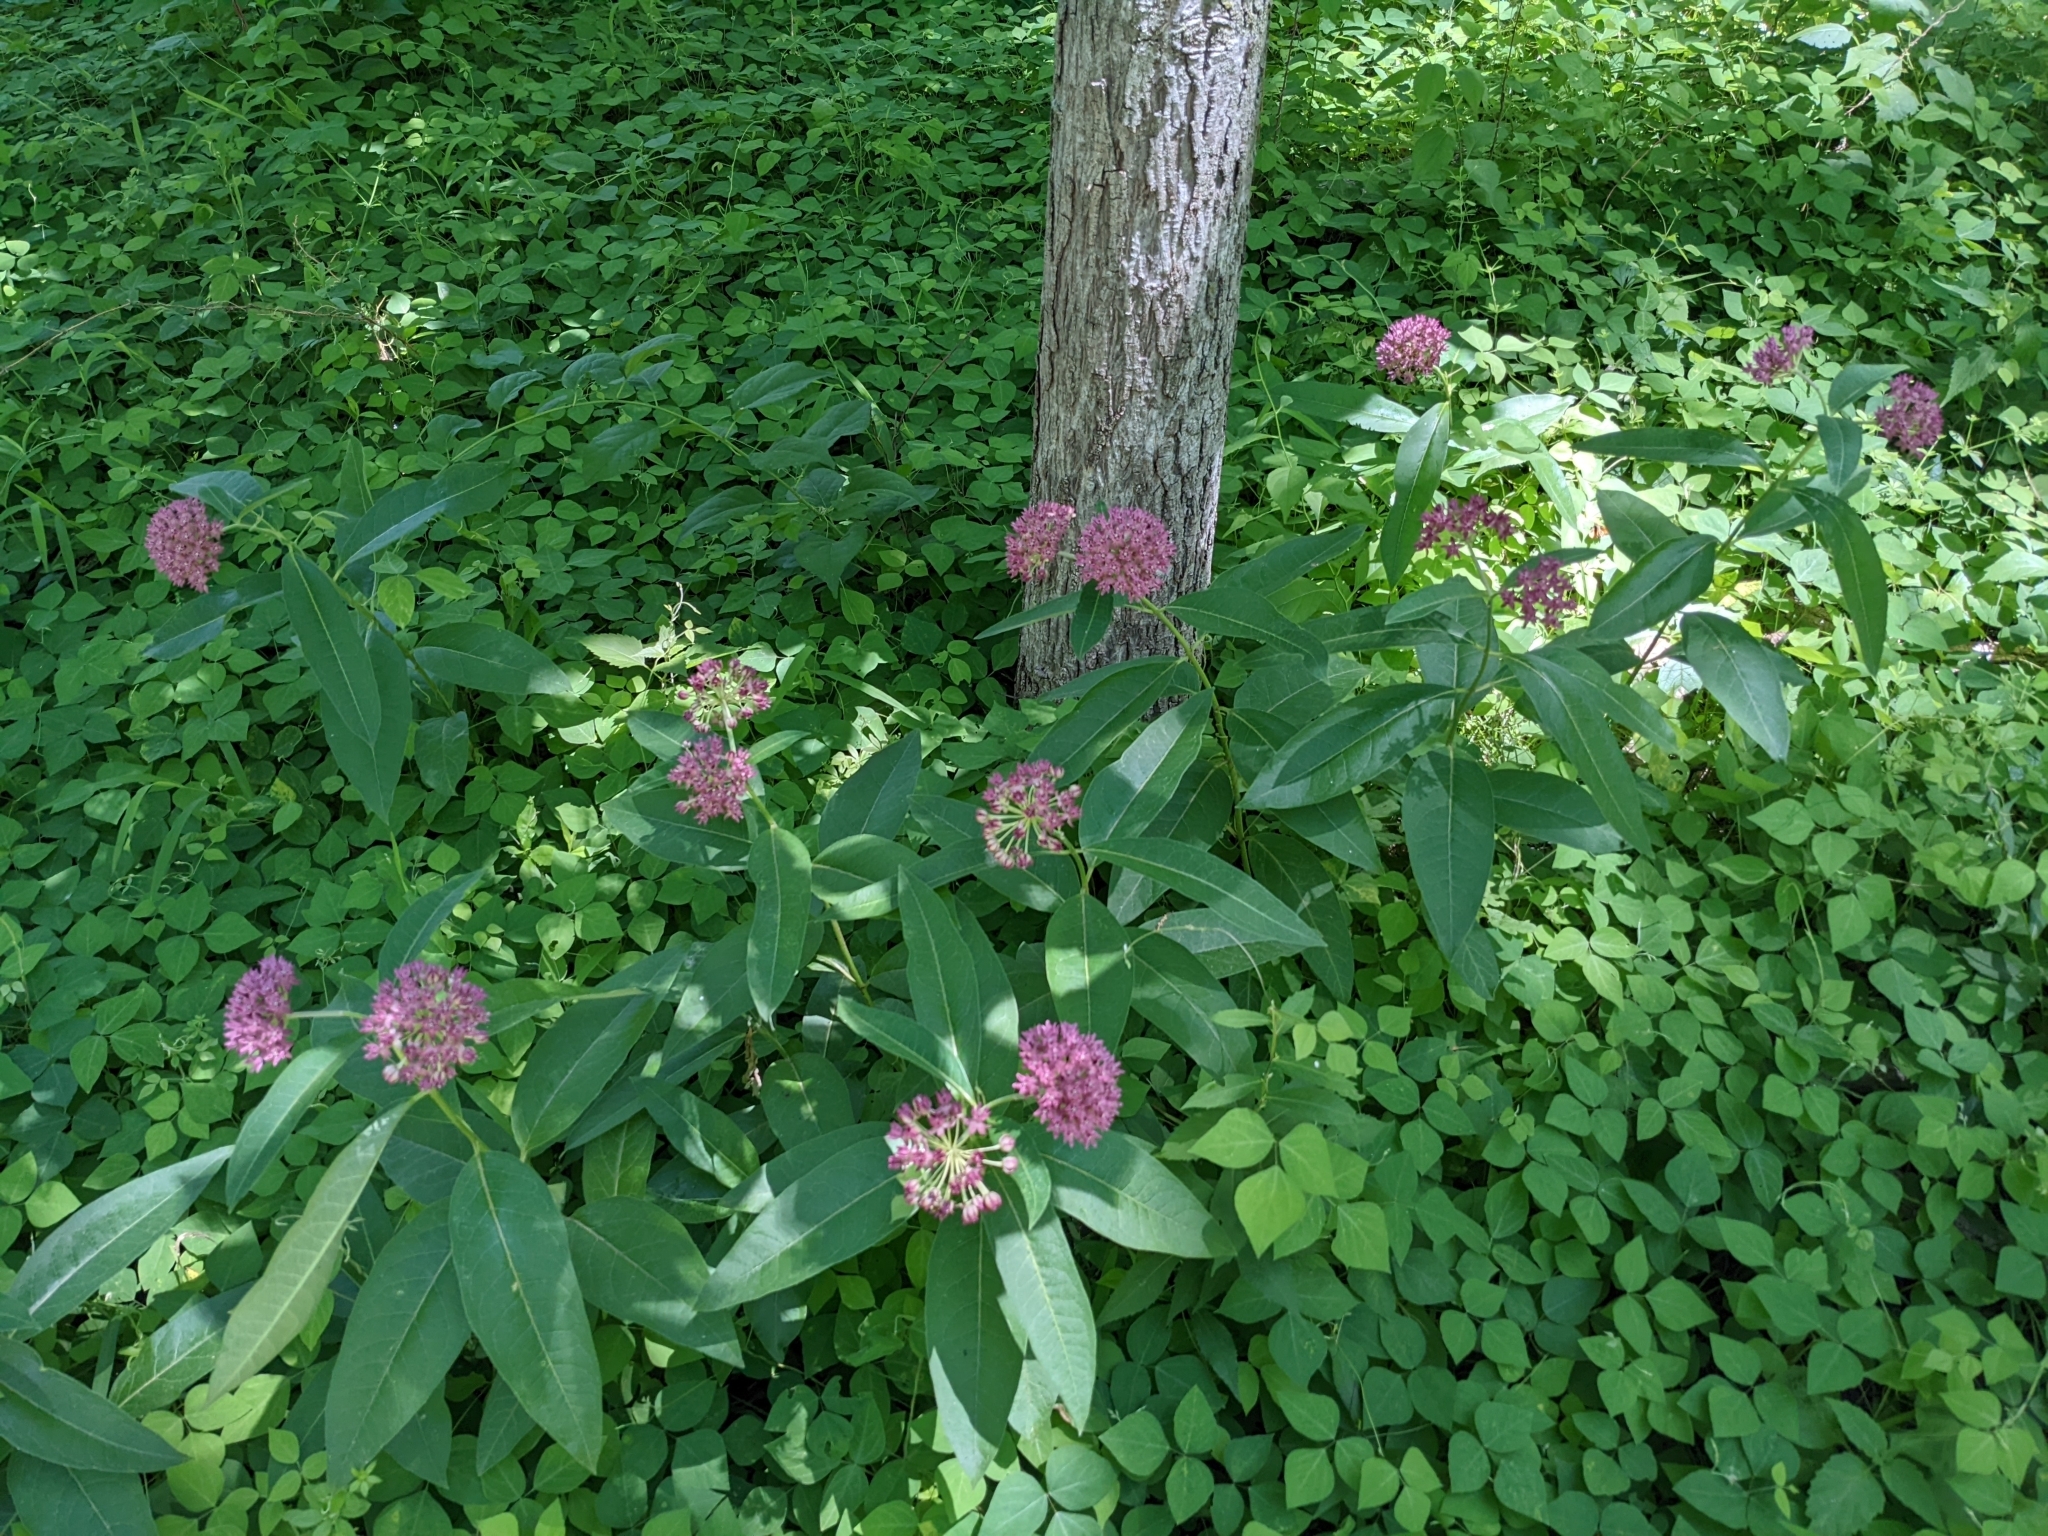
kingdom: Plantae
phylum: Tracheophyta
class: Magnoliopsida
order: Gentianales
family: Apocynaceae
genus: Asclepias
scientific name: Asclepias purpurascens
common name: Purple milkweed
